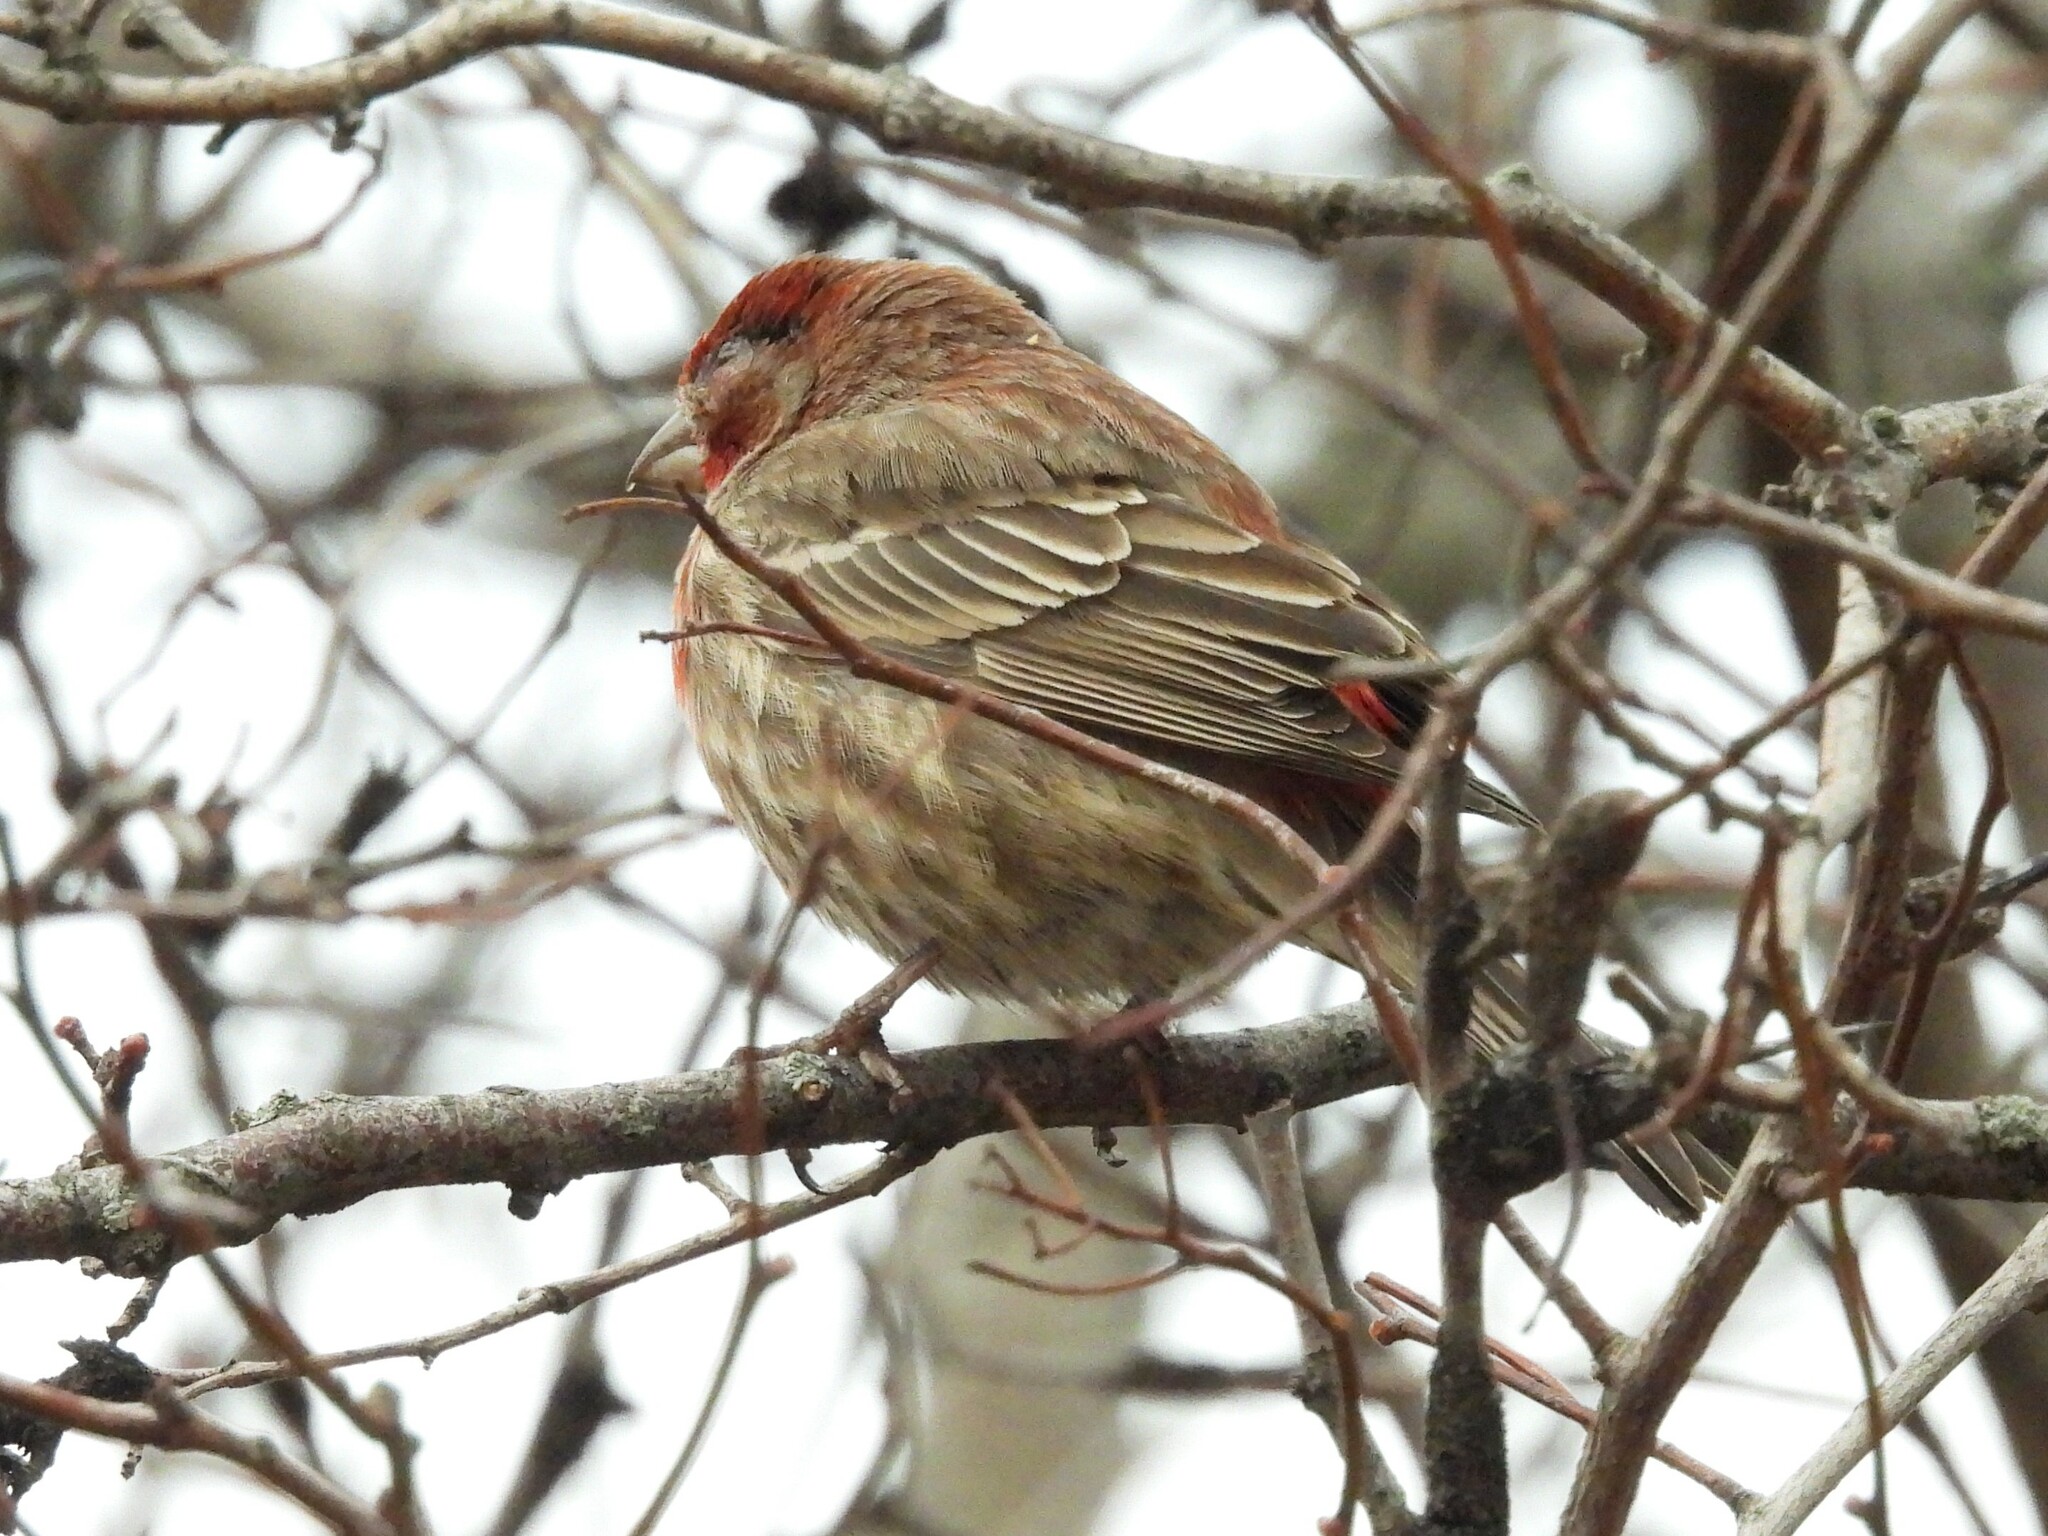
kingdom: Animalia
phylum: Chordata
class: Aves
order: Passeriformes
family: Fringillidae
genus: Haemorhous
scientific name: Haemorhous mexicanus
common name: House finch
